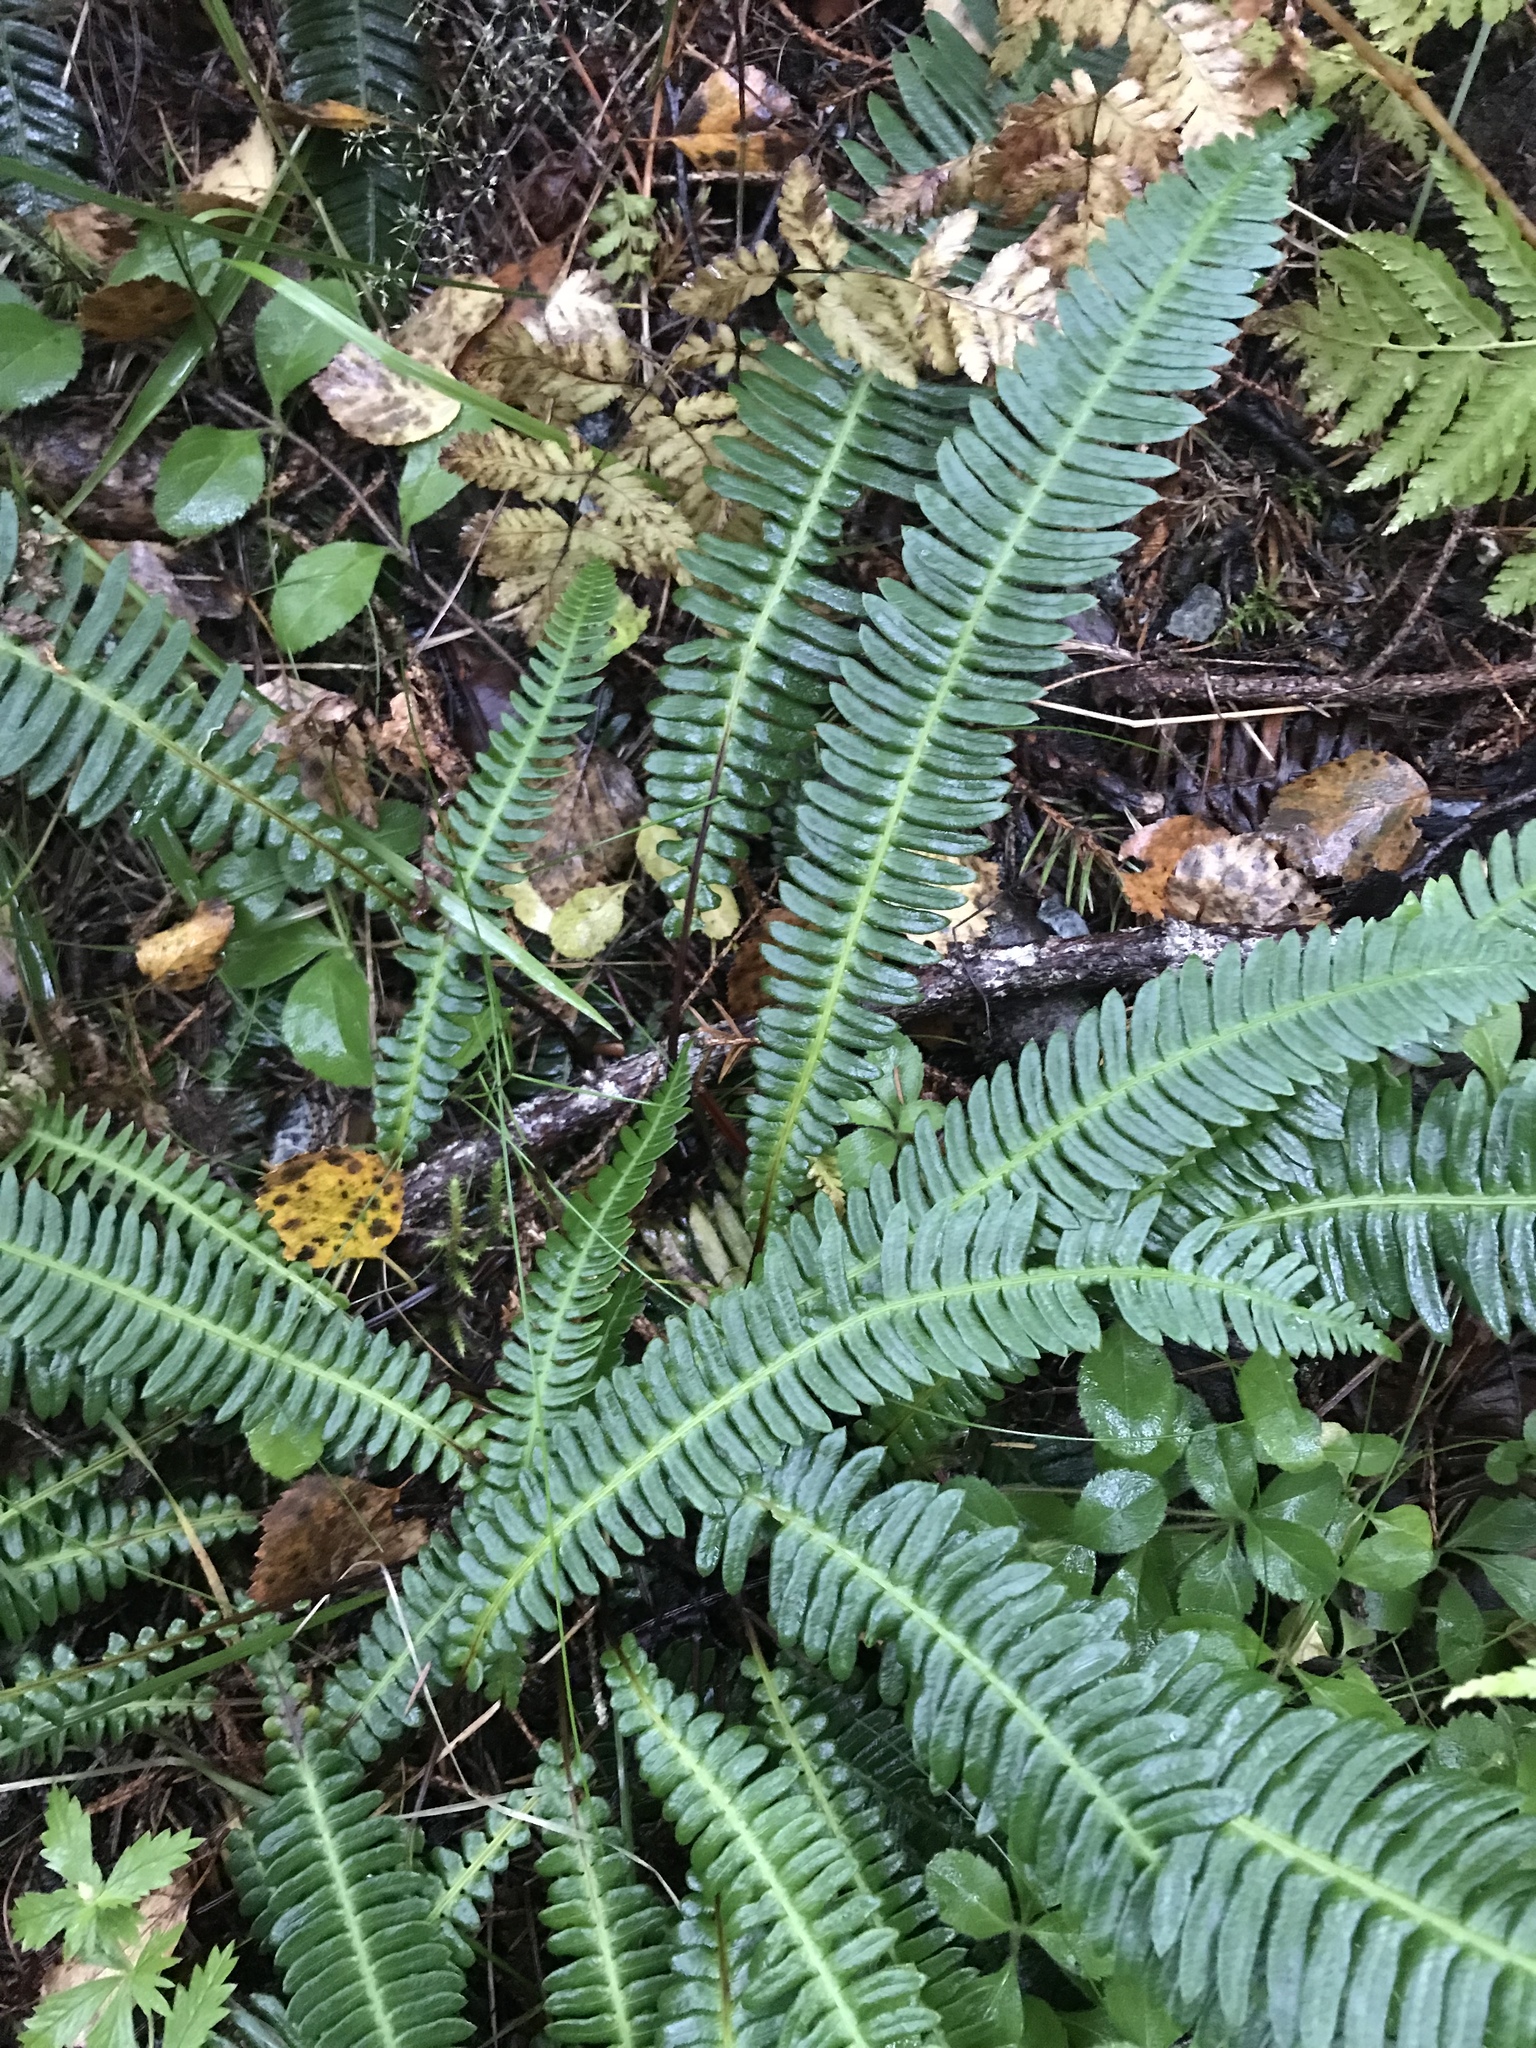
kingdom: Plantae
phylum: Tracheophyta
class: Polypodiopsida
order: Polypodiales
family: Blechnaceae
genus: Struthiopteris
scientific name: Struthiopteris spicant
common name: Deer fern
